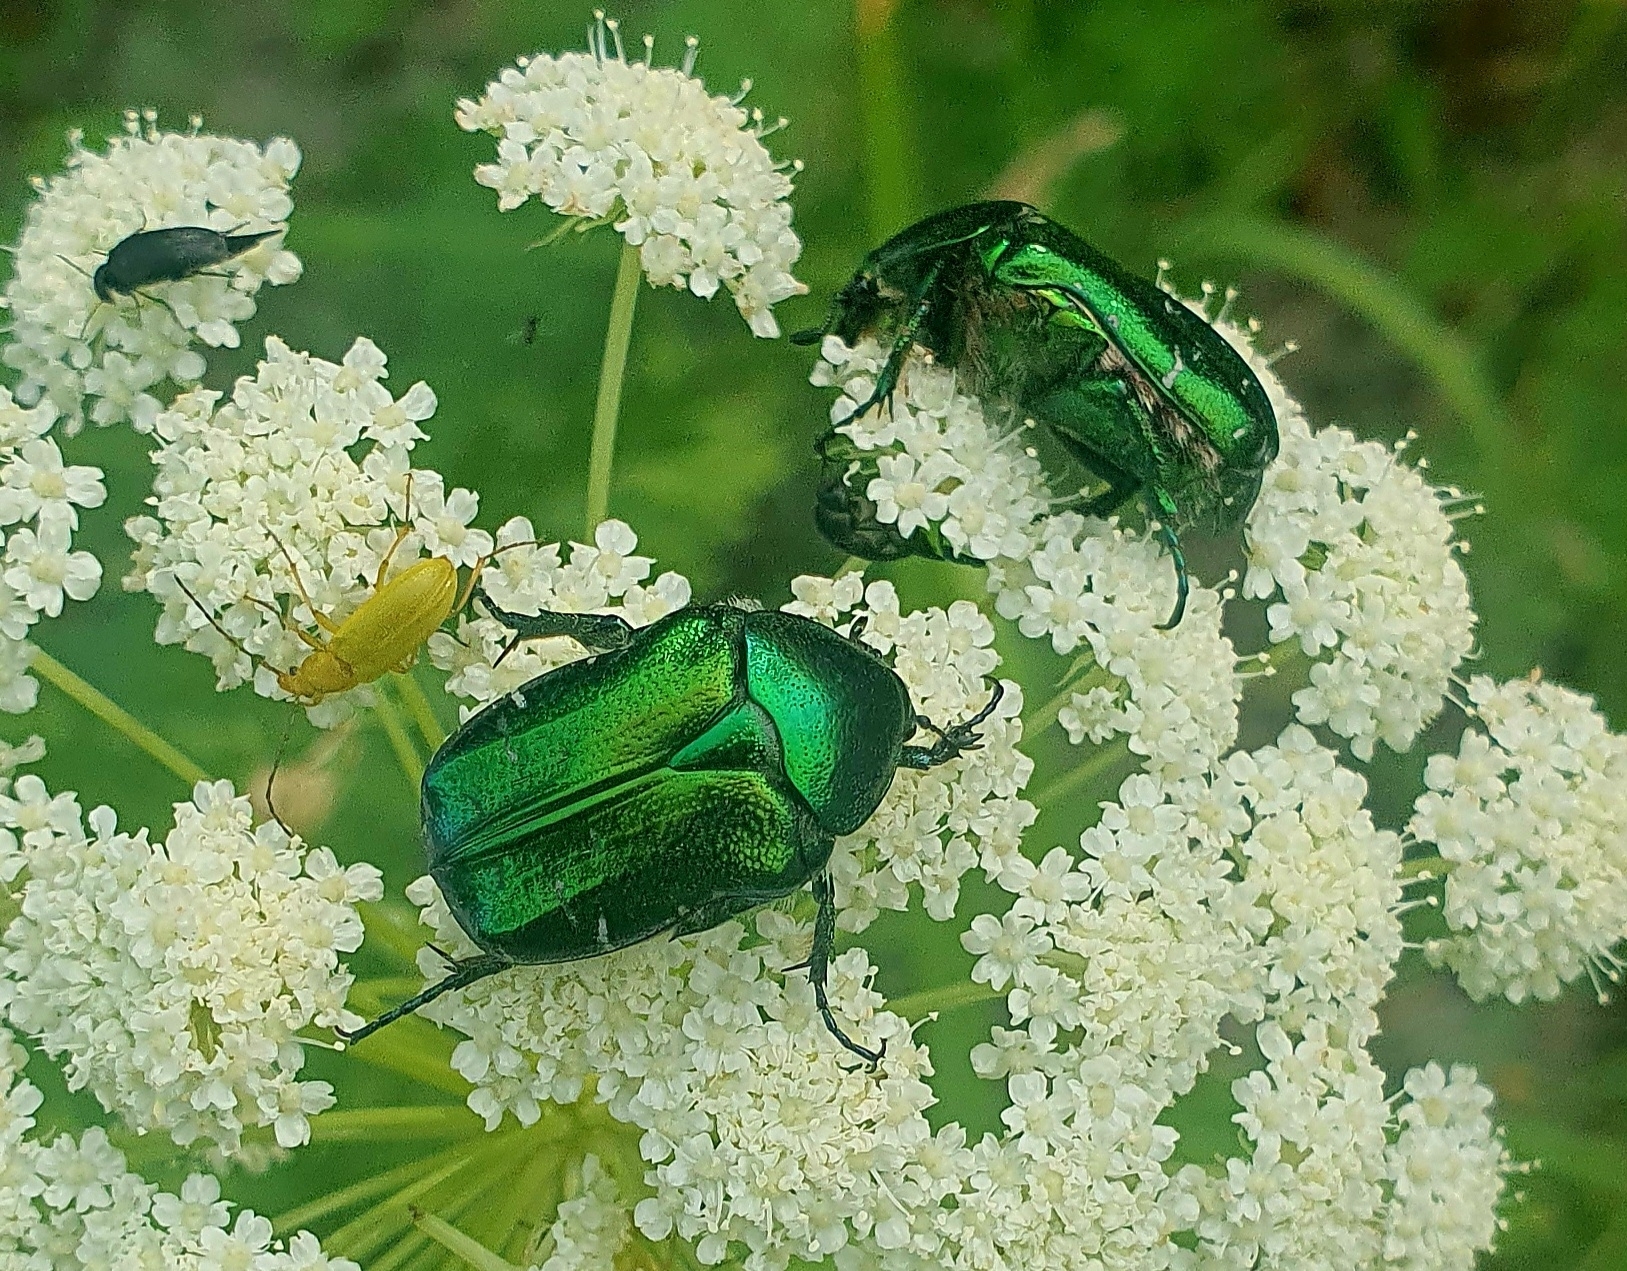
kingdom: Animalia
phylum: Arthropoda
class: Insecta
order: Coleoptera
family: Scarabaeidae
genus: Cetonia
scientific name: Cetonia aurata
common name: Rose chafer
